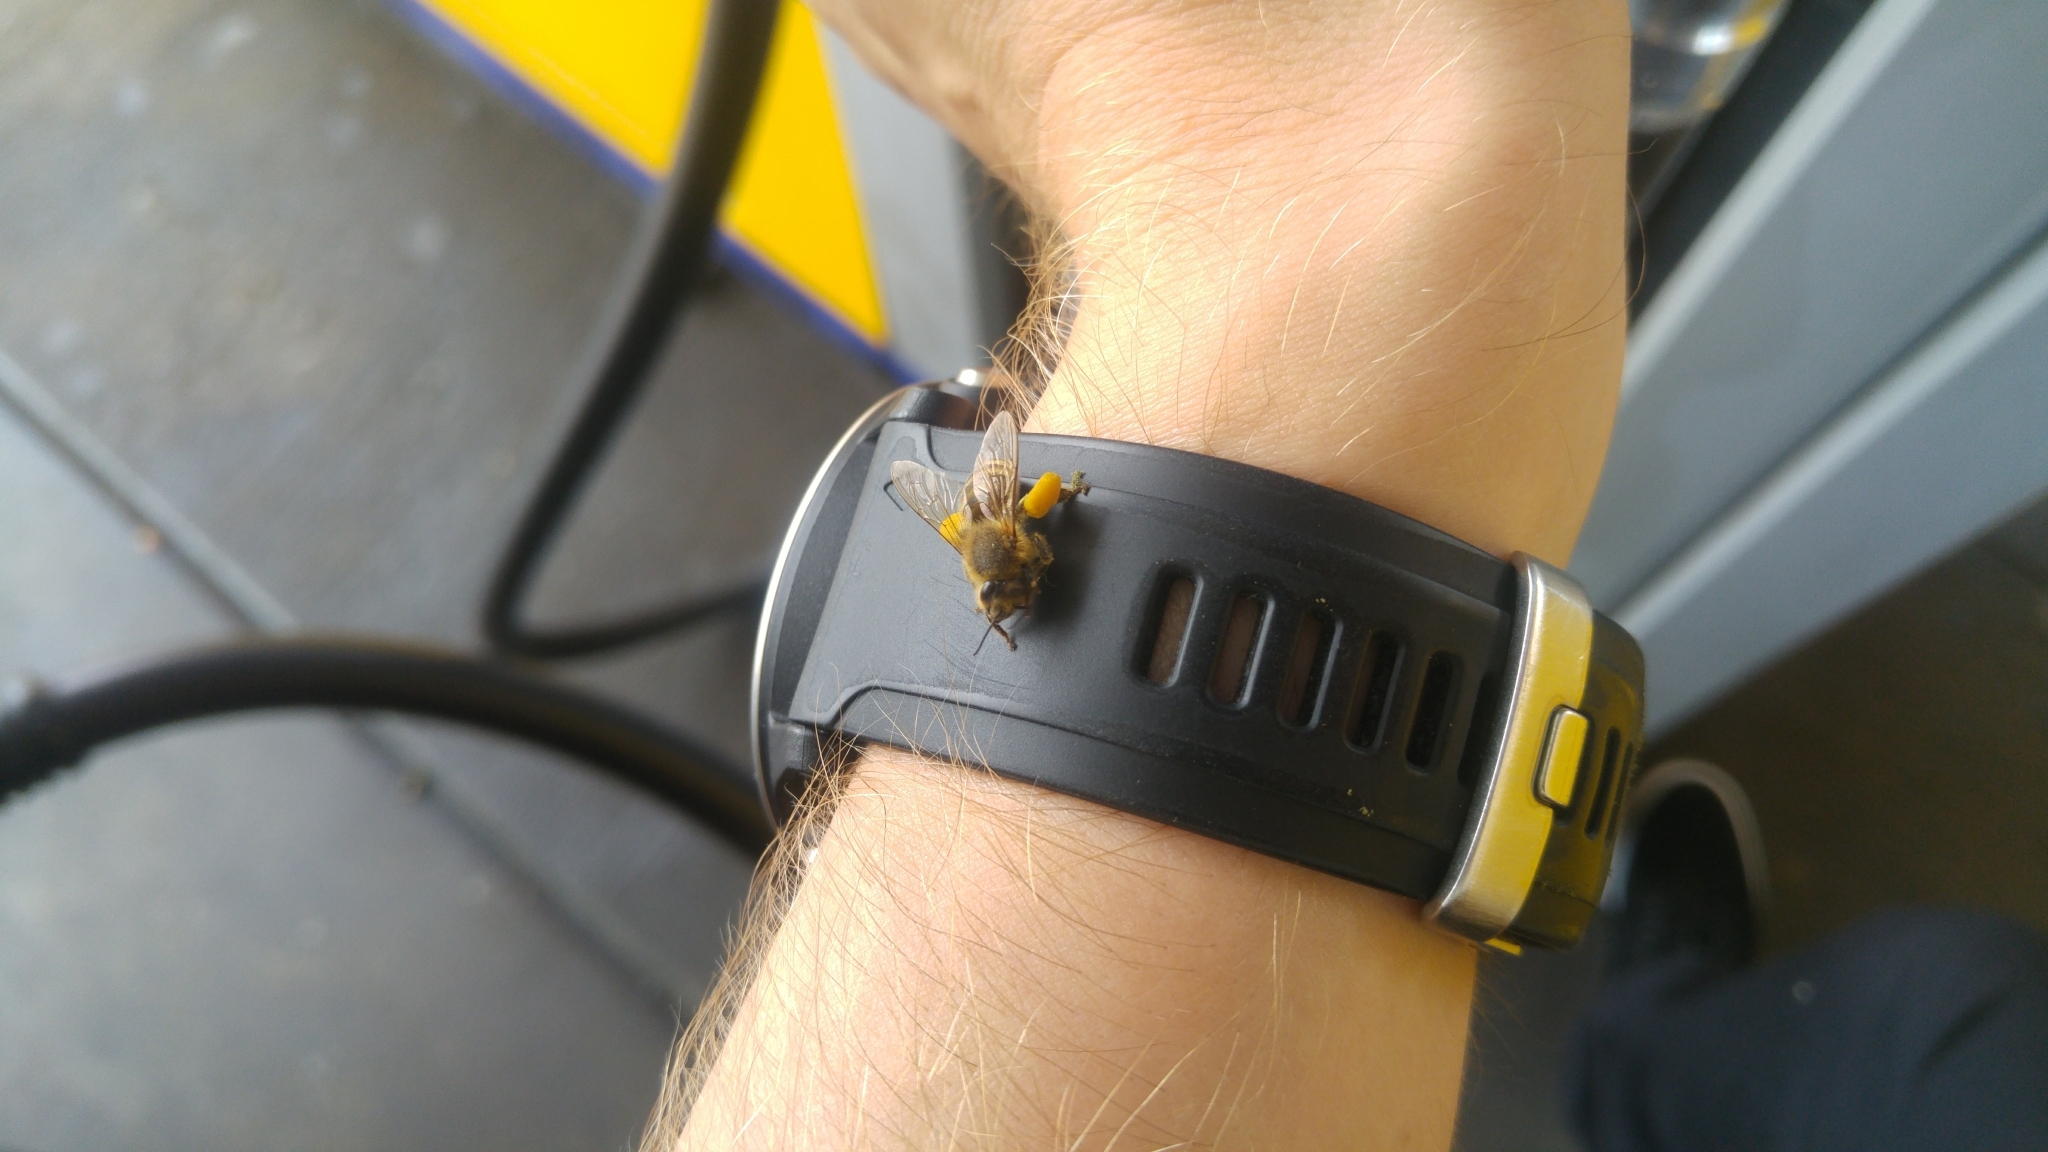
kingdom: Animalia
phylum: Arthropoda
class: Insecta
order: Hymenoptera
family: Apidae
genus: Apis
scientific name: Apis mellifera
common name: Honey bee
